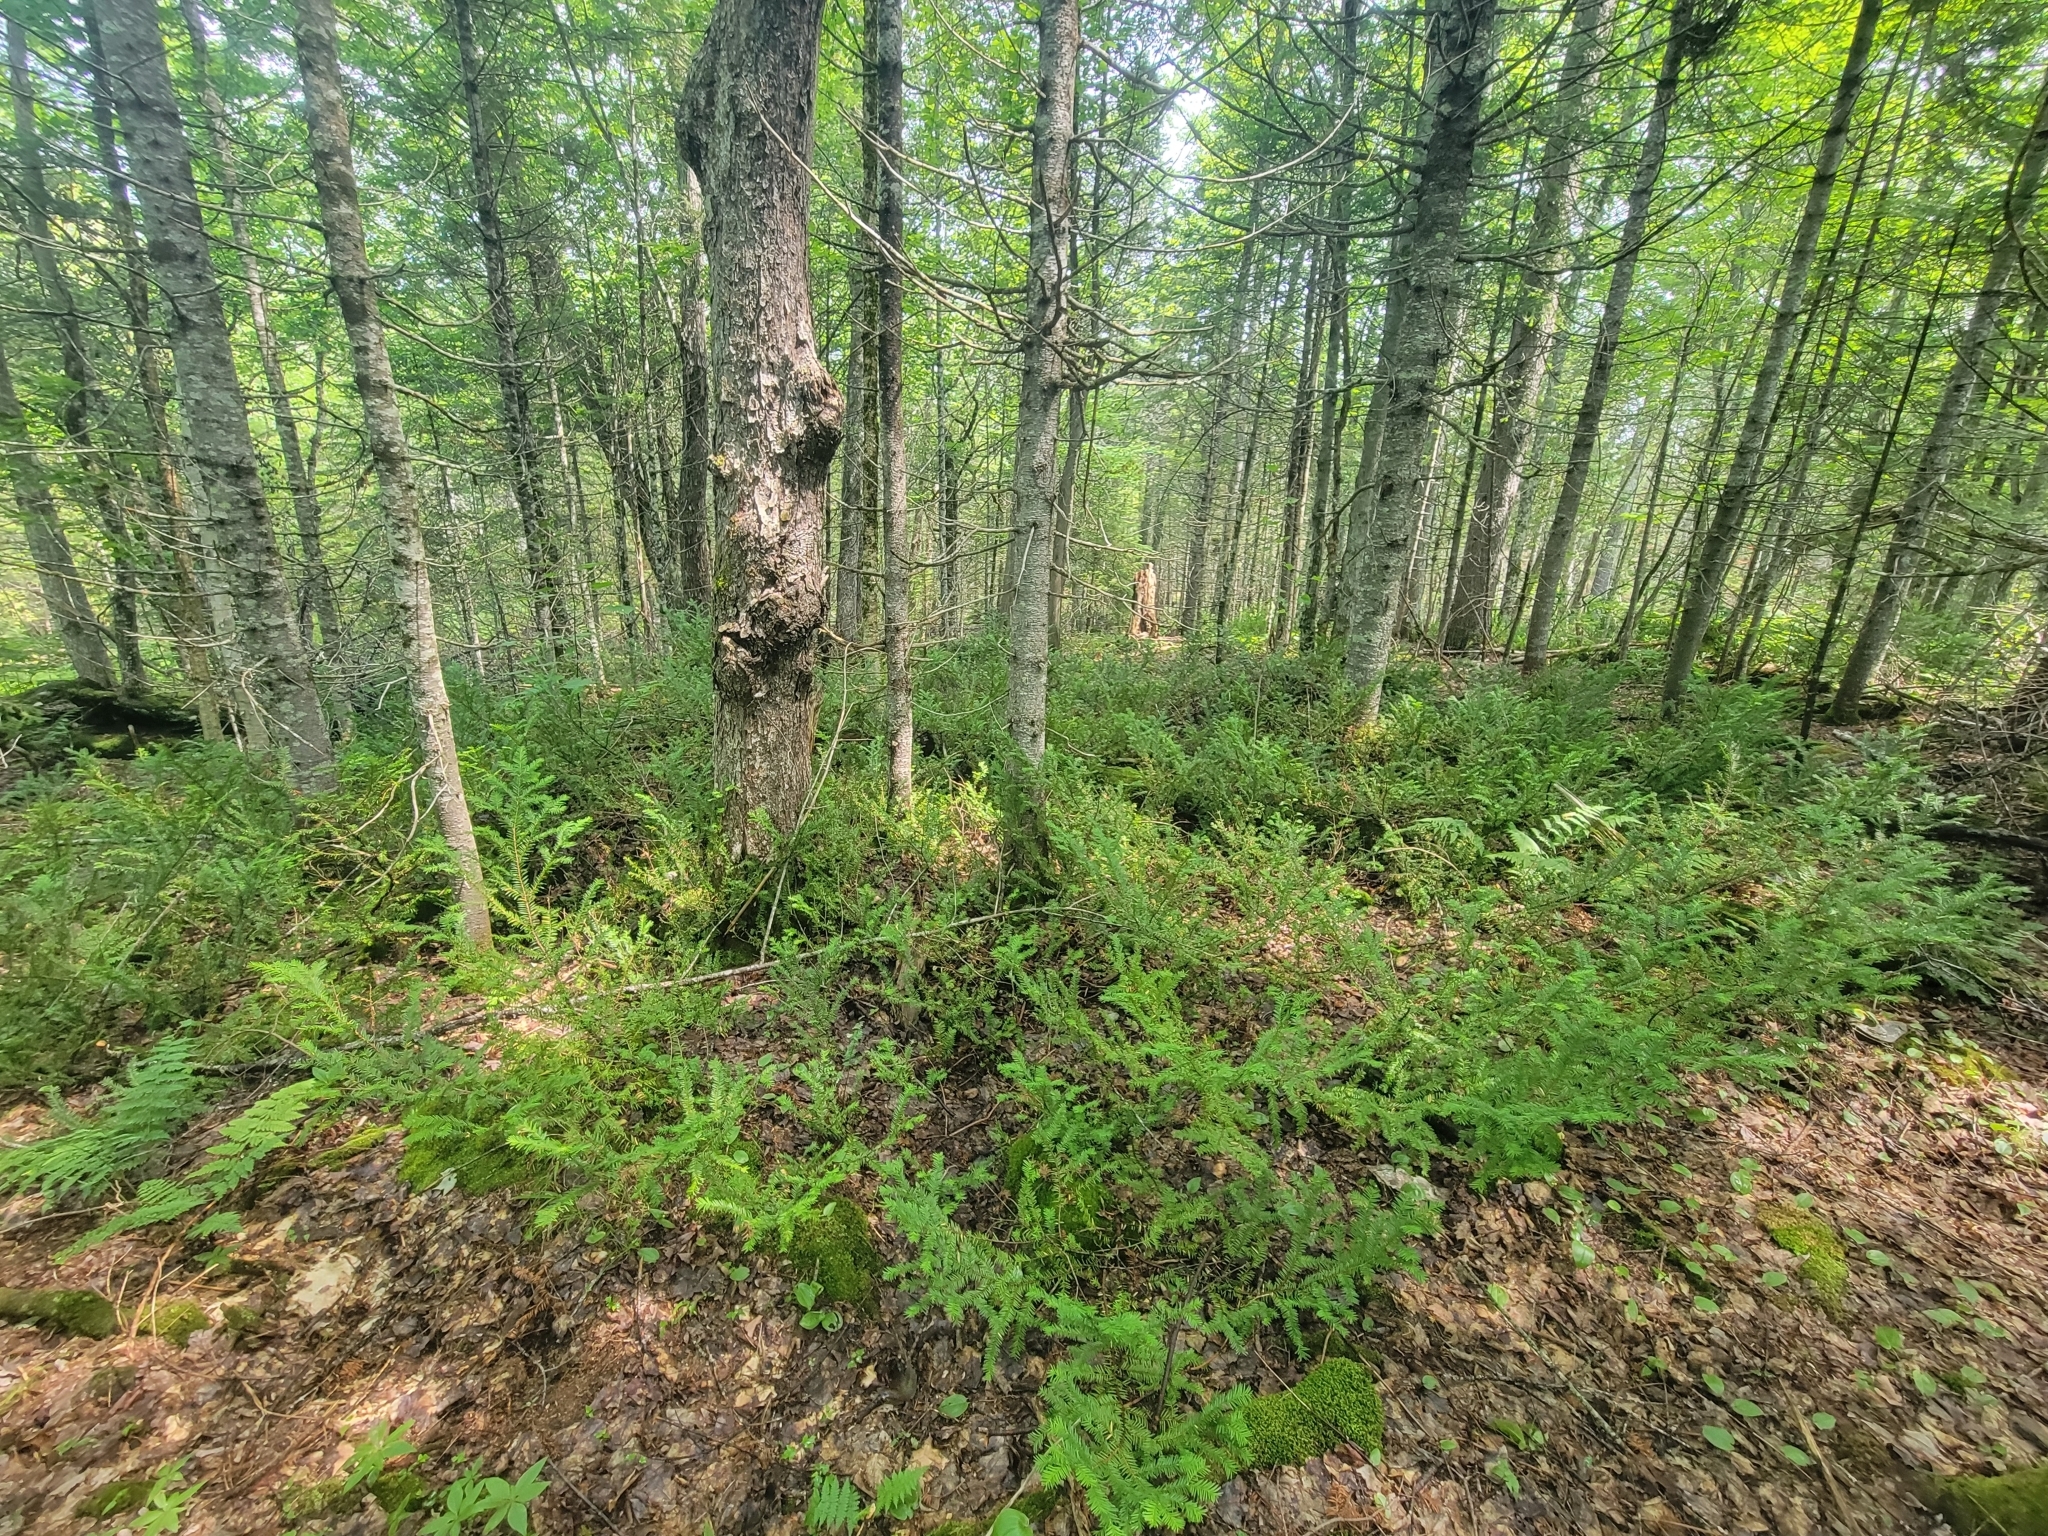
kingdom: Plantae
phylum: Tracheophyta
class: Pinopsida
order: Pinales
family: Taxaceae
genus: Taxus
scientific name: Taxus canadensis
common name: American yew
